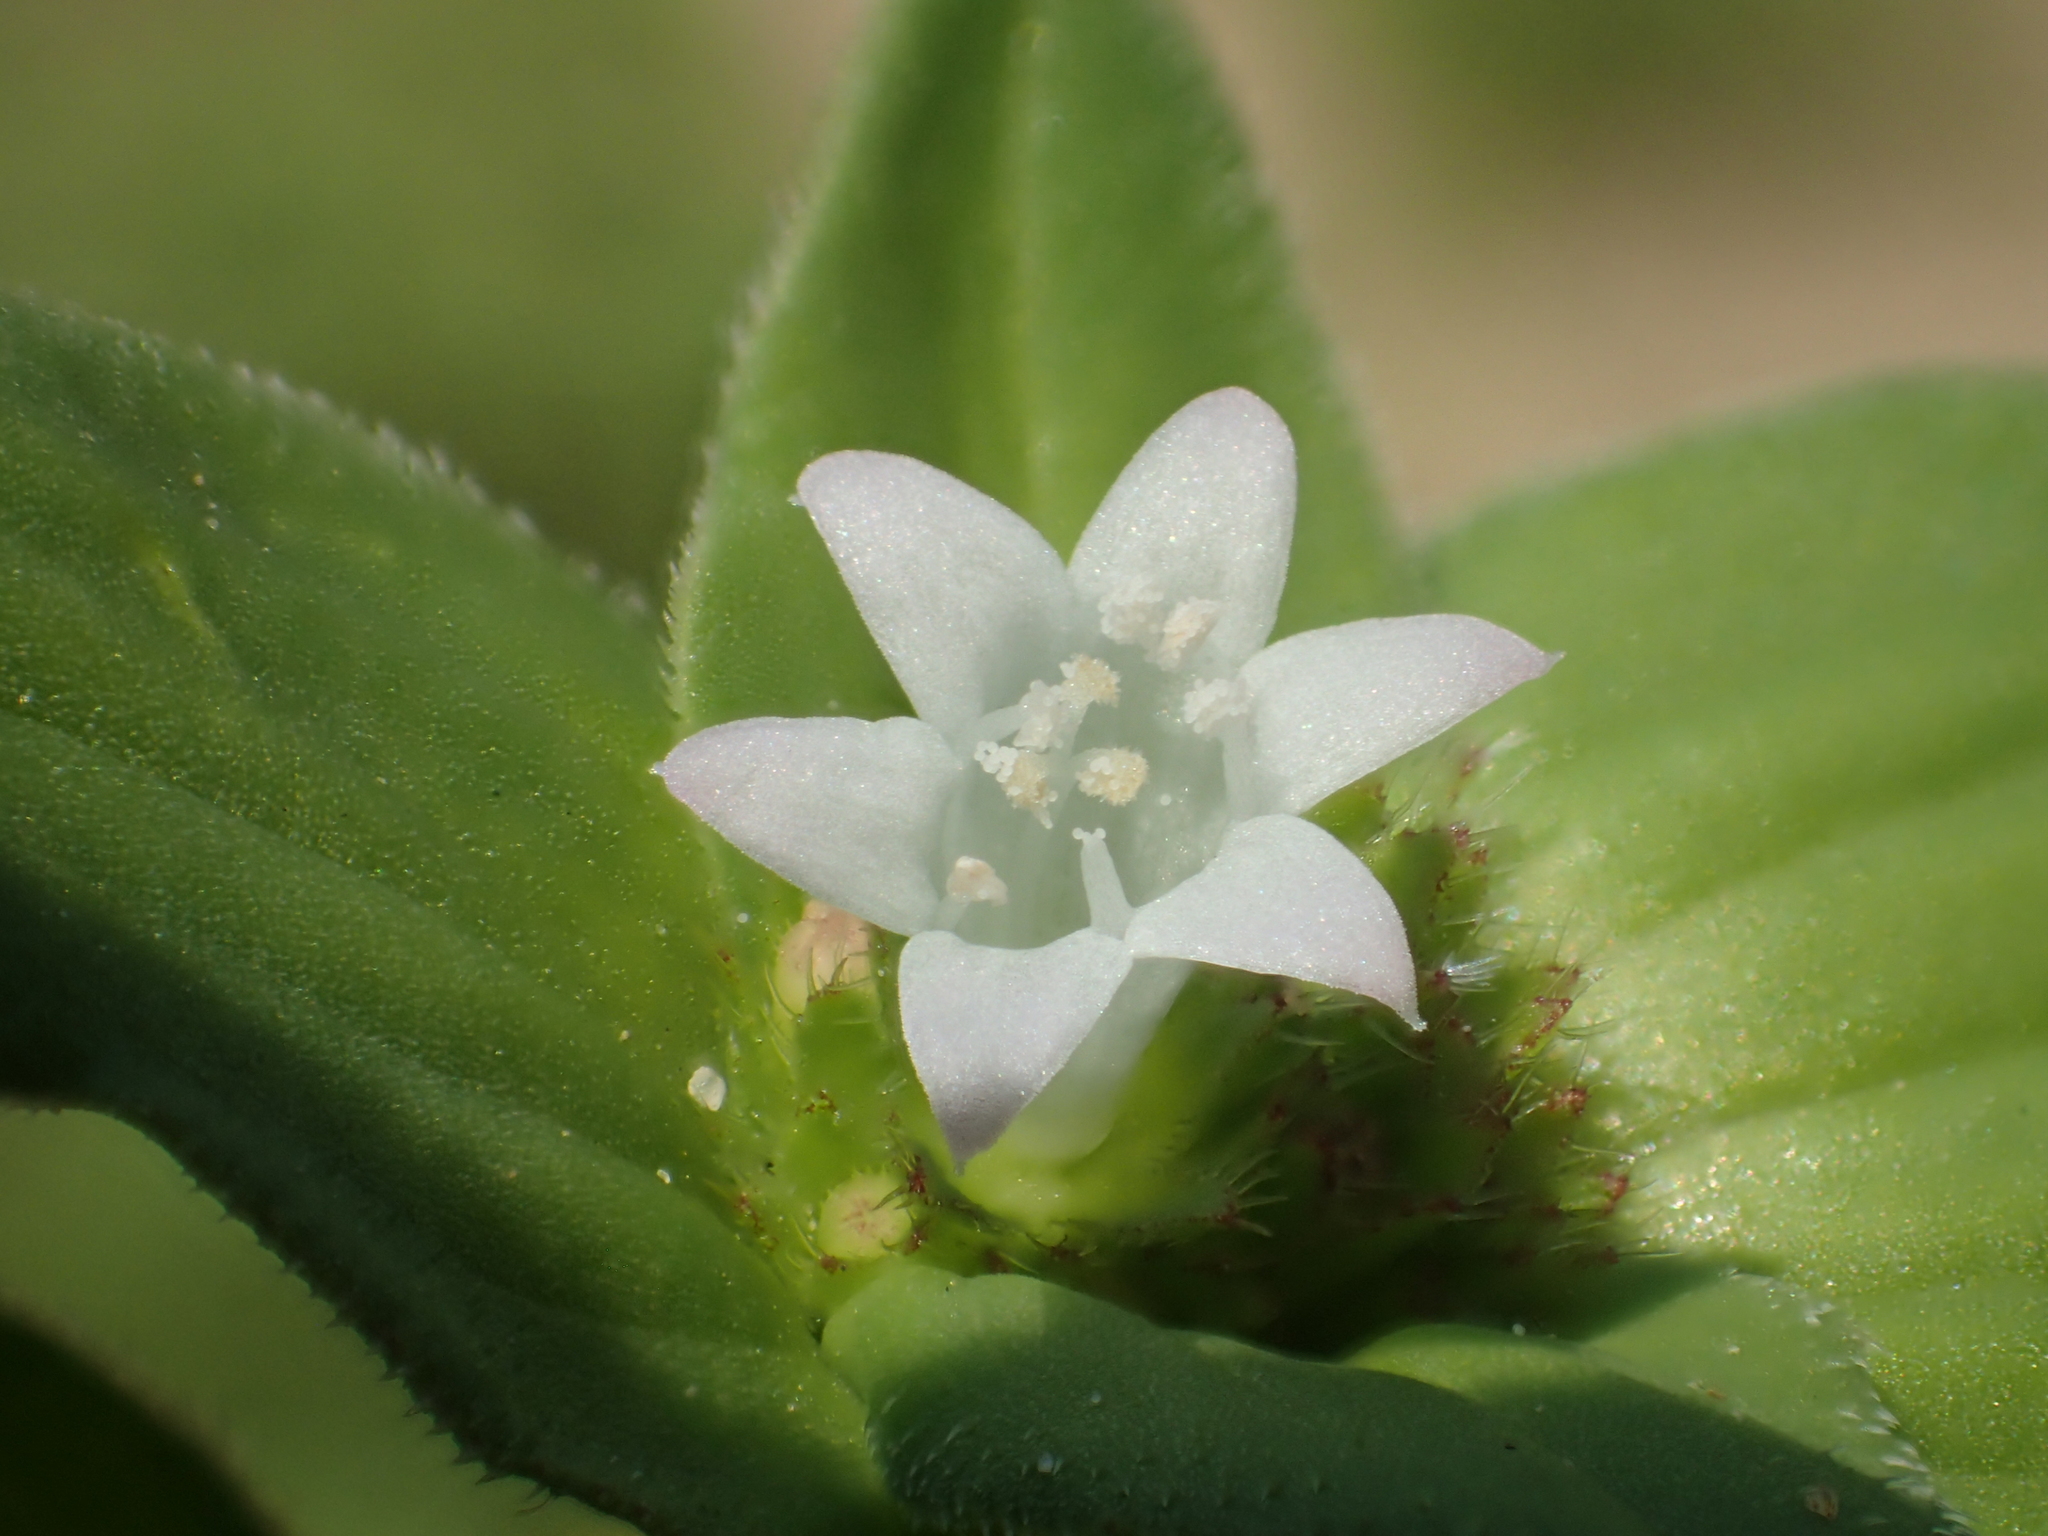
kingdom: Plantae
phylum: Tracheophyta
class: Magnoliopsida
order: Gentianales
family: Rubiaceae
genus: Richardia
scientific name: Richardia brasiliensis
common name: Tropical mexican clover
